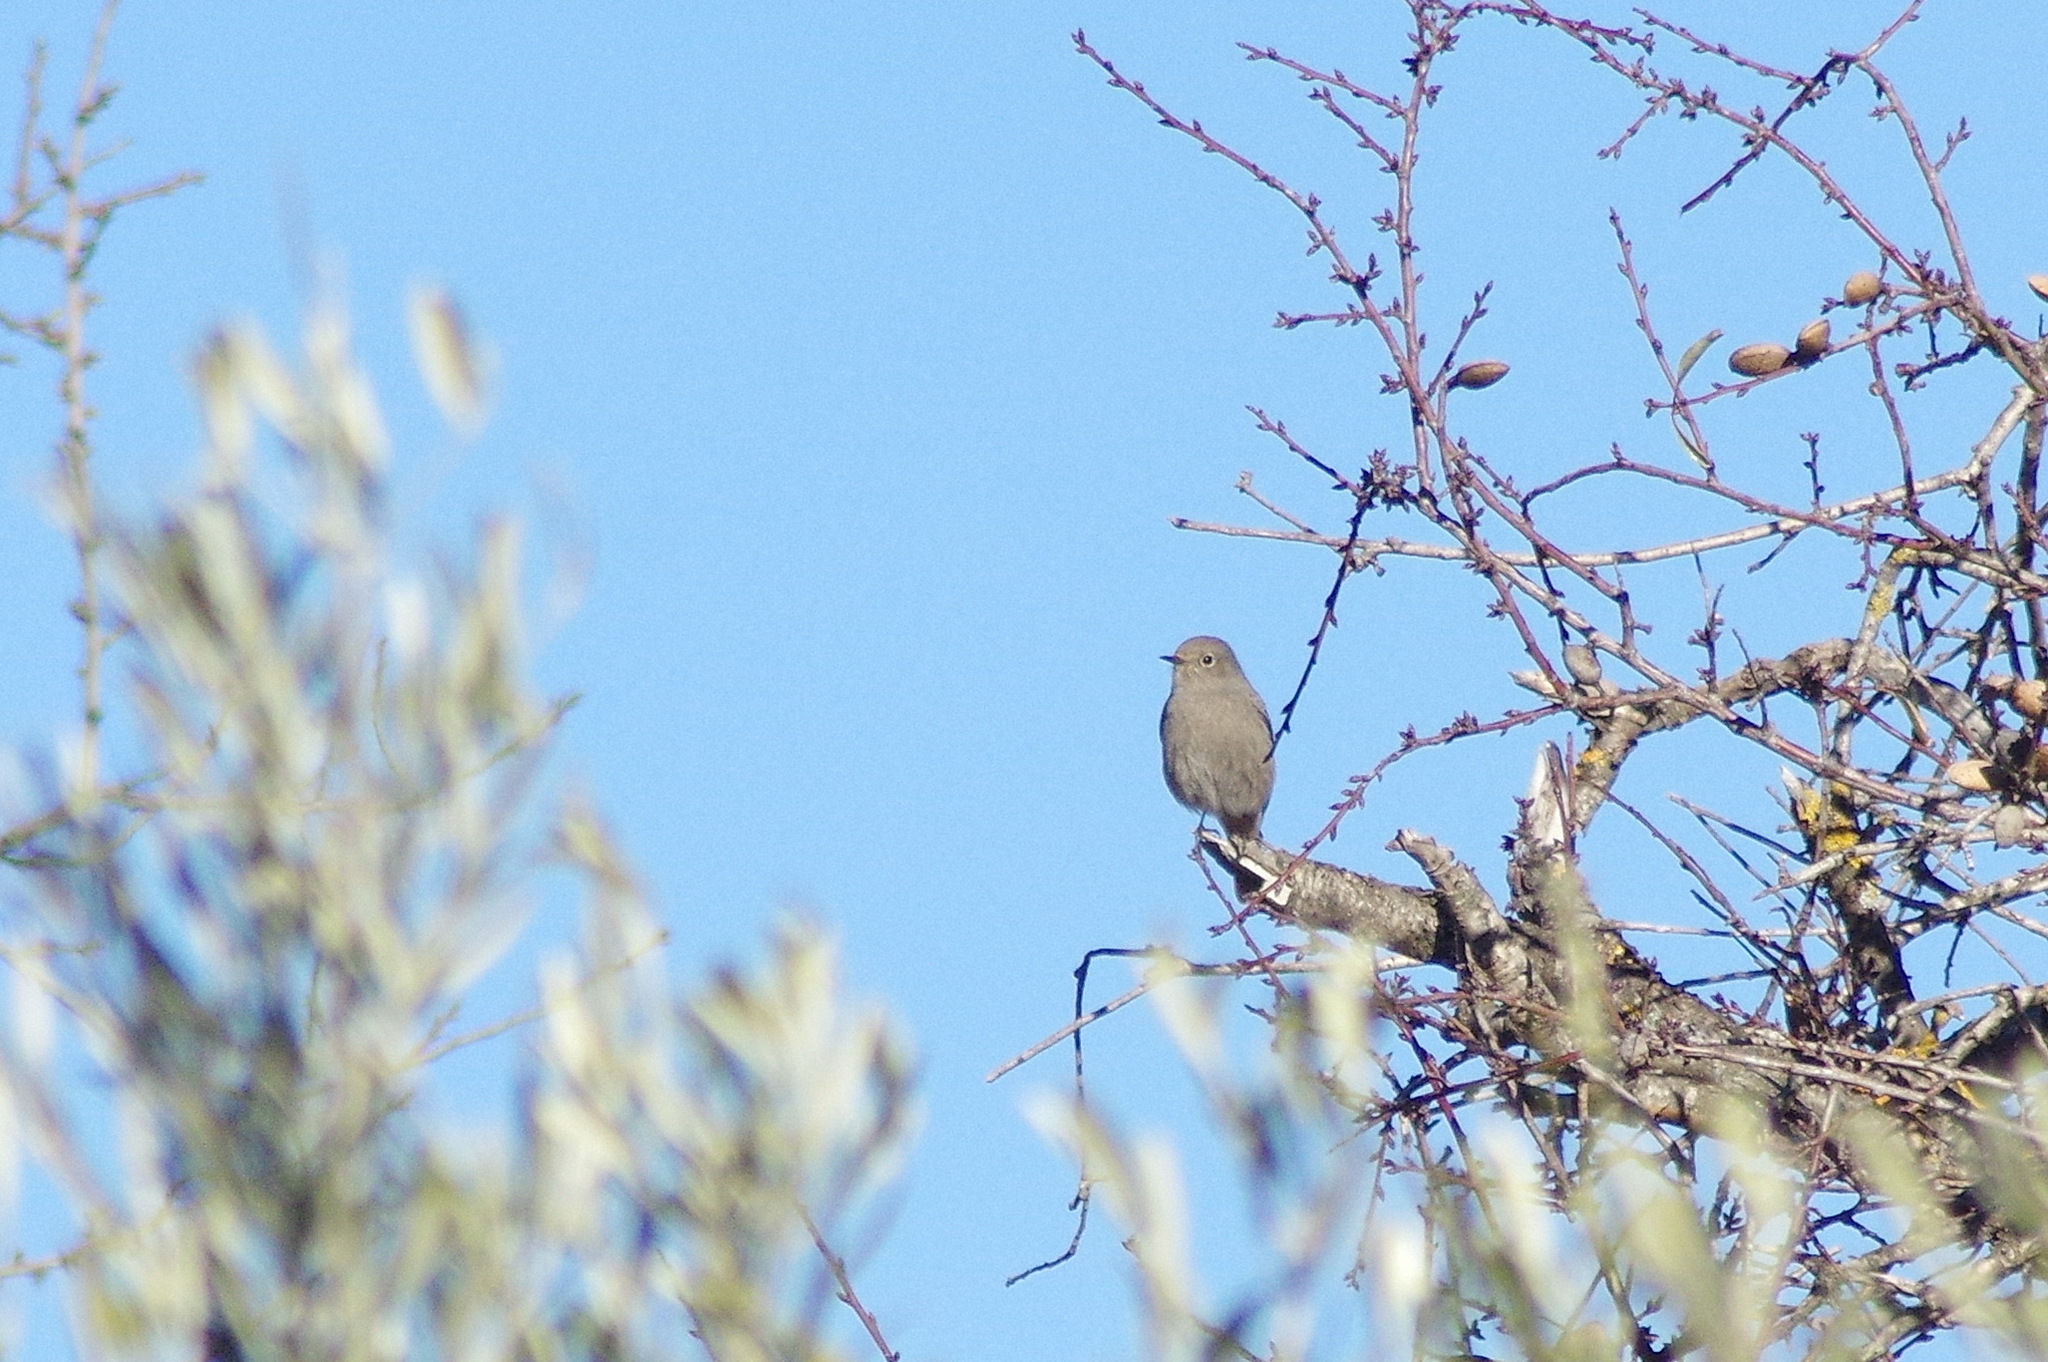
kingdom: Animalia
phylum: Chordata
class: Aves
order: Passeriformes
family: Muscicapidae
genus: Phoenicurus
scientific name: Phoenicurus ochruros
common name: Black redstart
